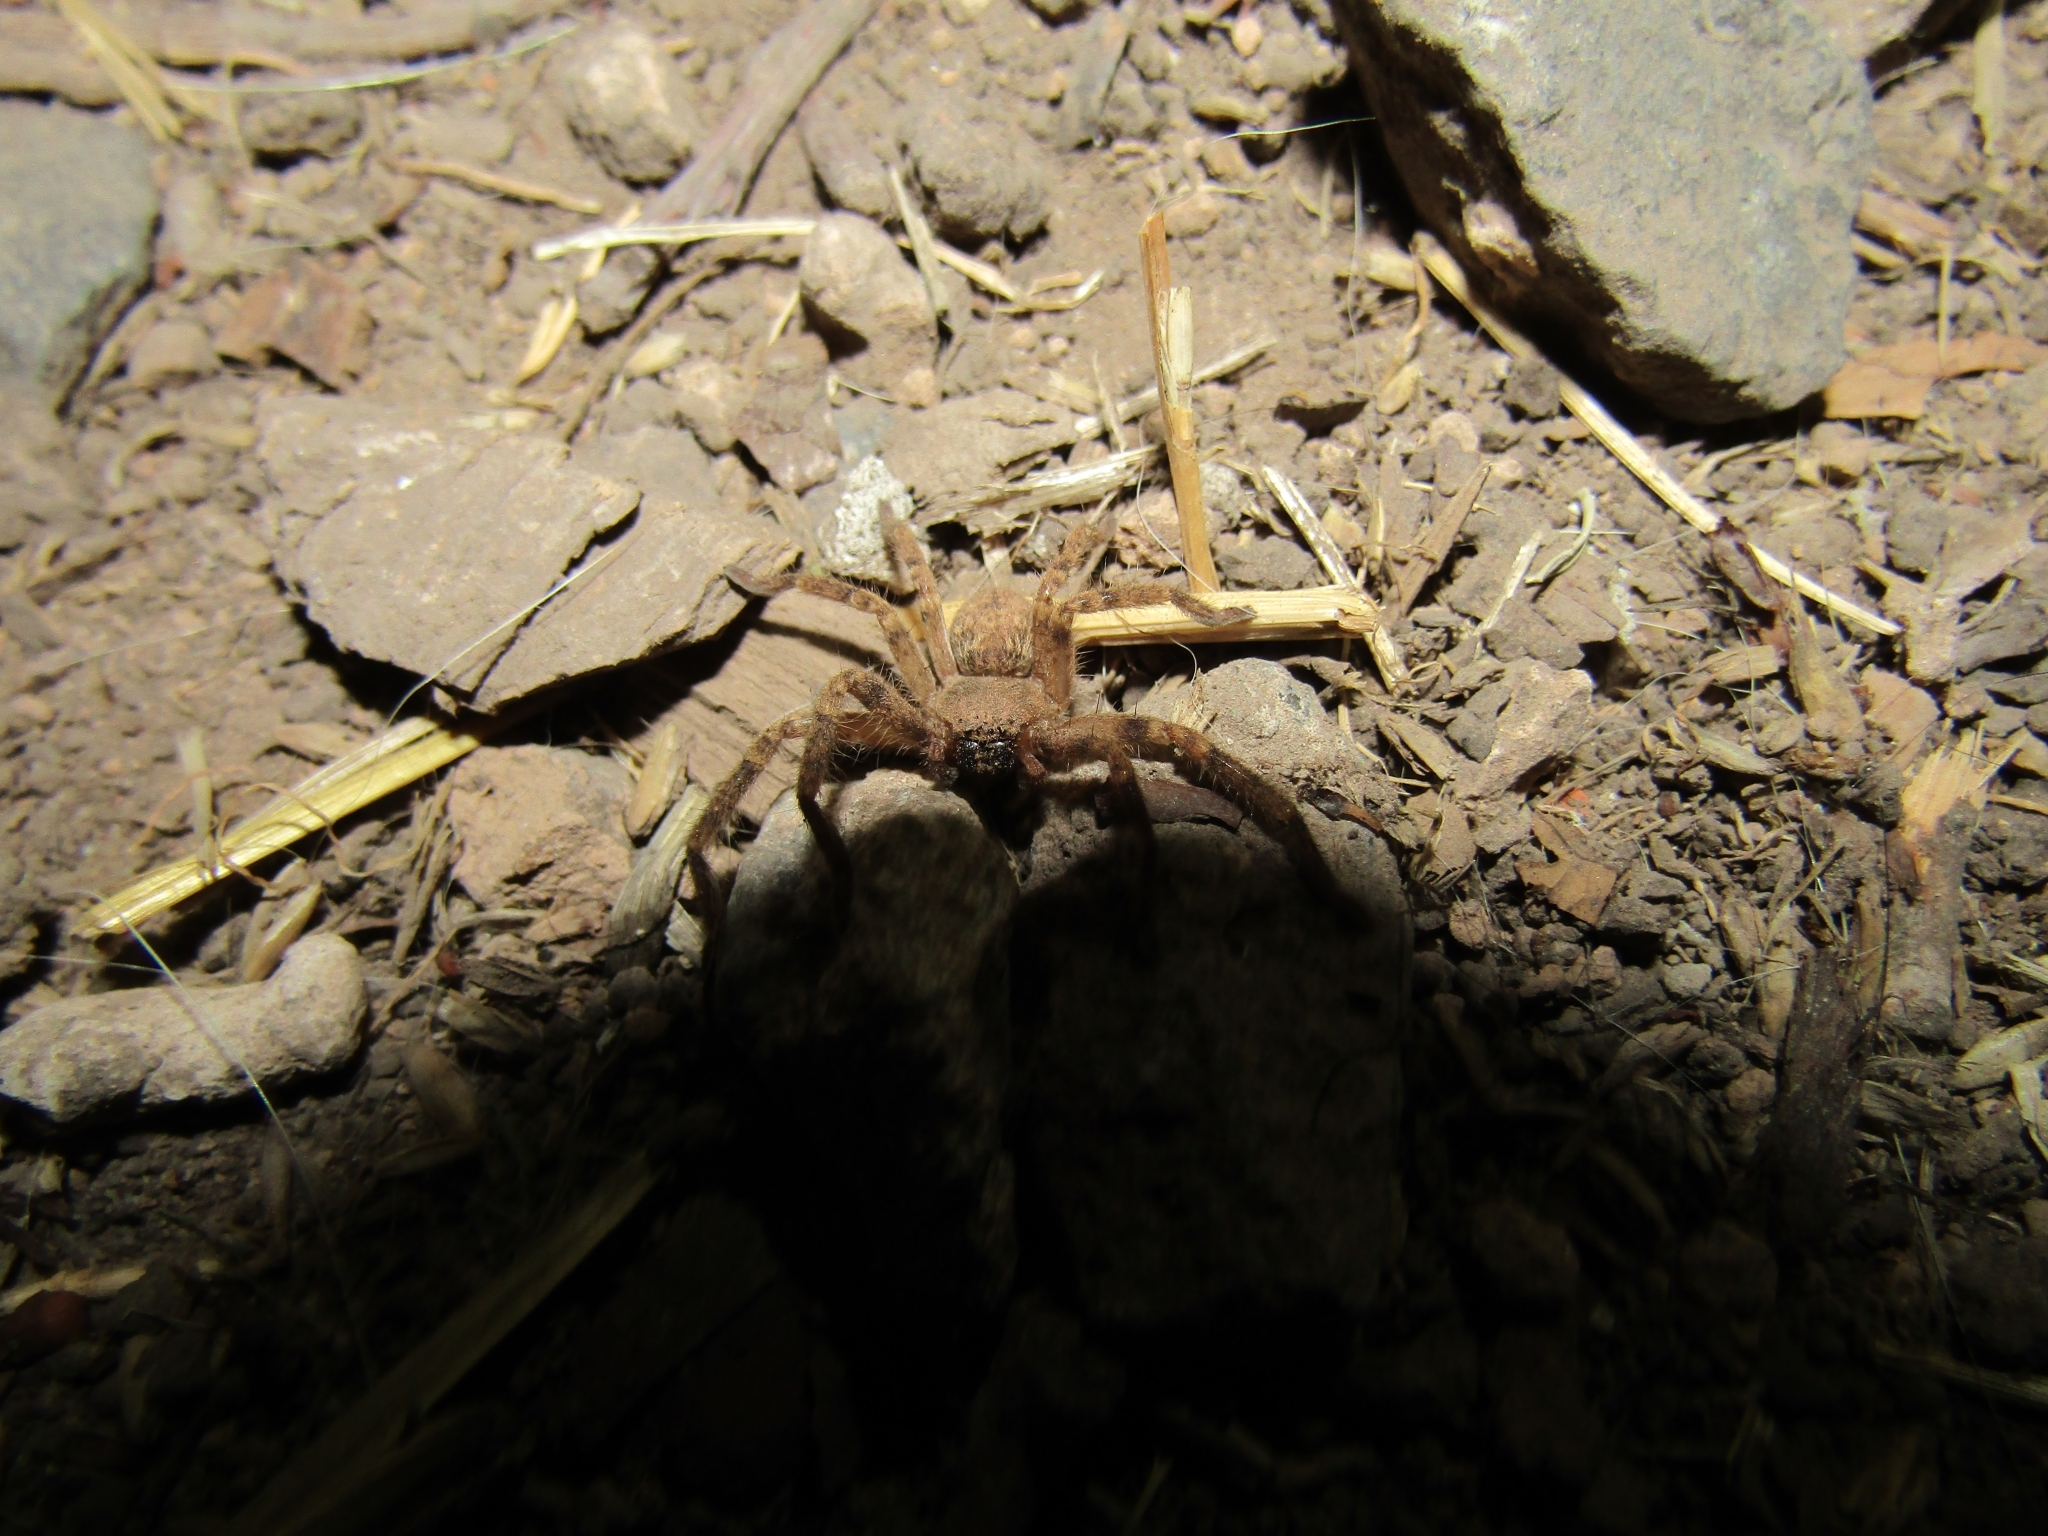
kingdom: Animalia
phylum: Arthropoda
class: Arachnida
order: Araneae
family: Sparassidae
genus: Polybetes
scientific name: Polybetes rapidus
